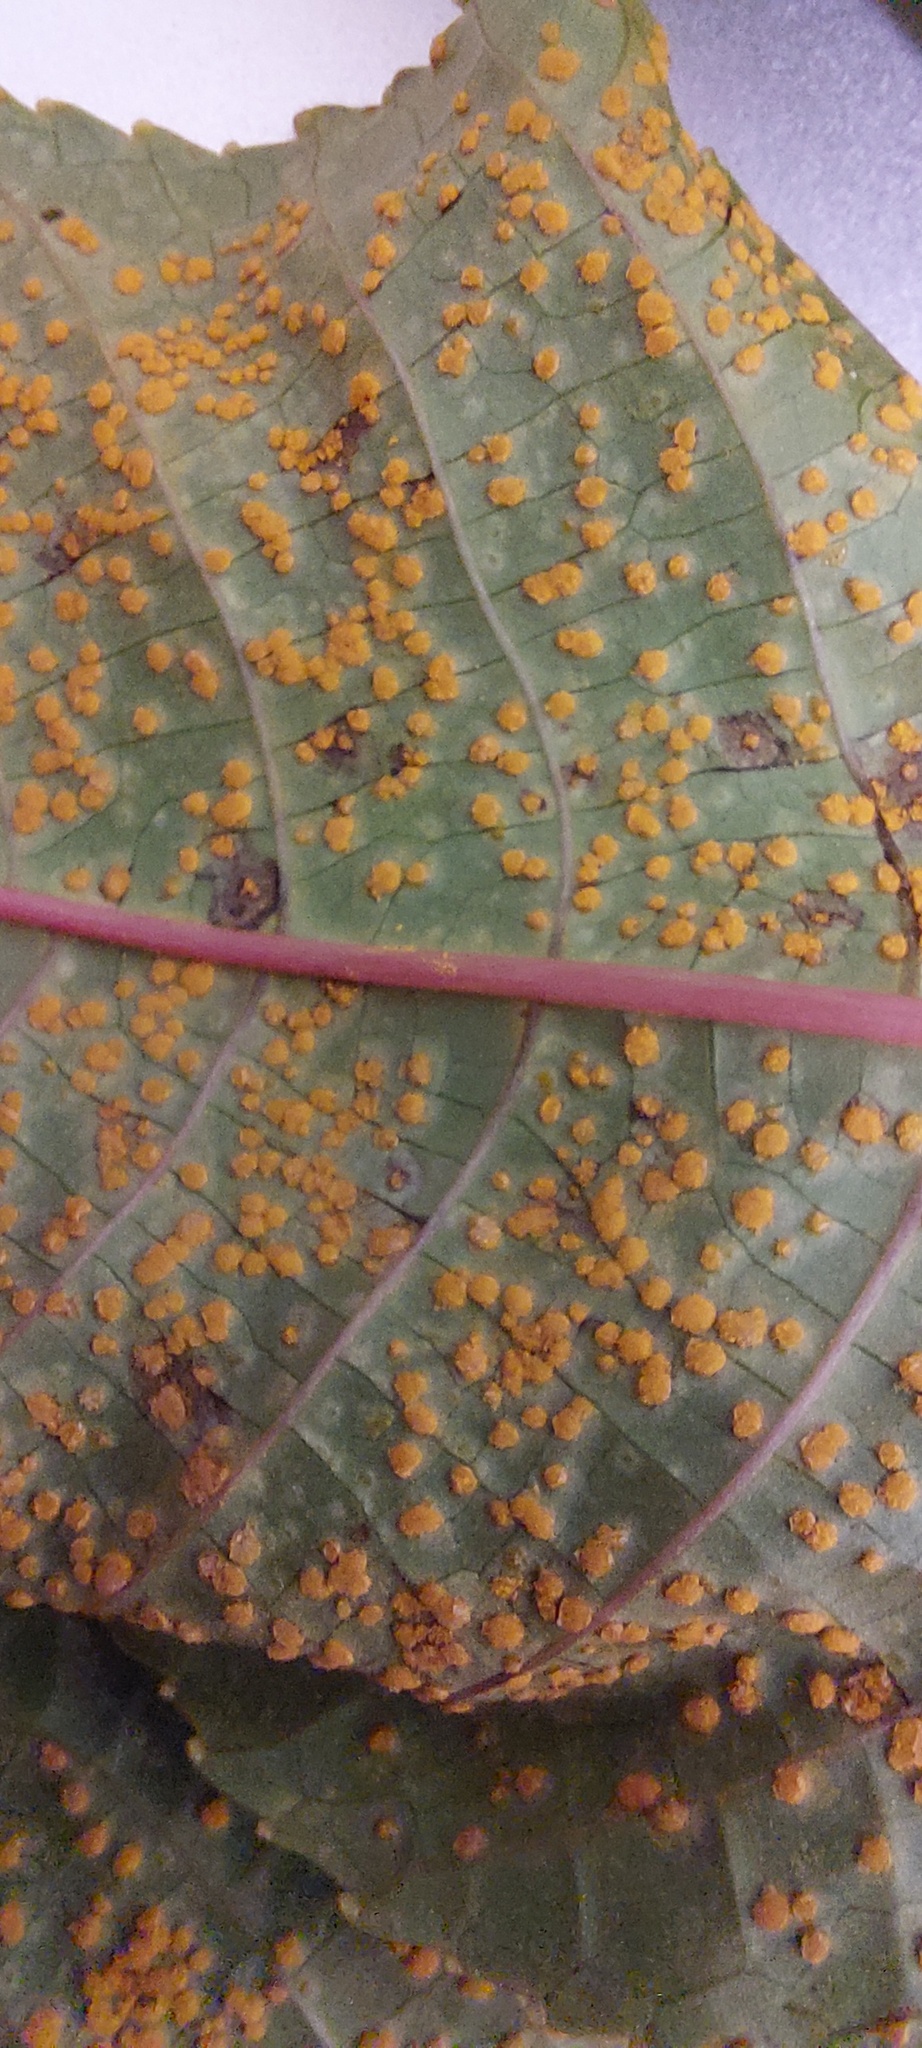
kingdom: Fungi
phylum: Basidiomycota
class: Pucciniomycetes
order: Pucciniales
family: Melampsoraceae
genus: Melampsora
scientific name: Melampsora ricini
